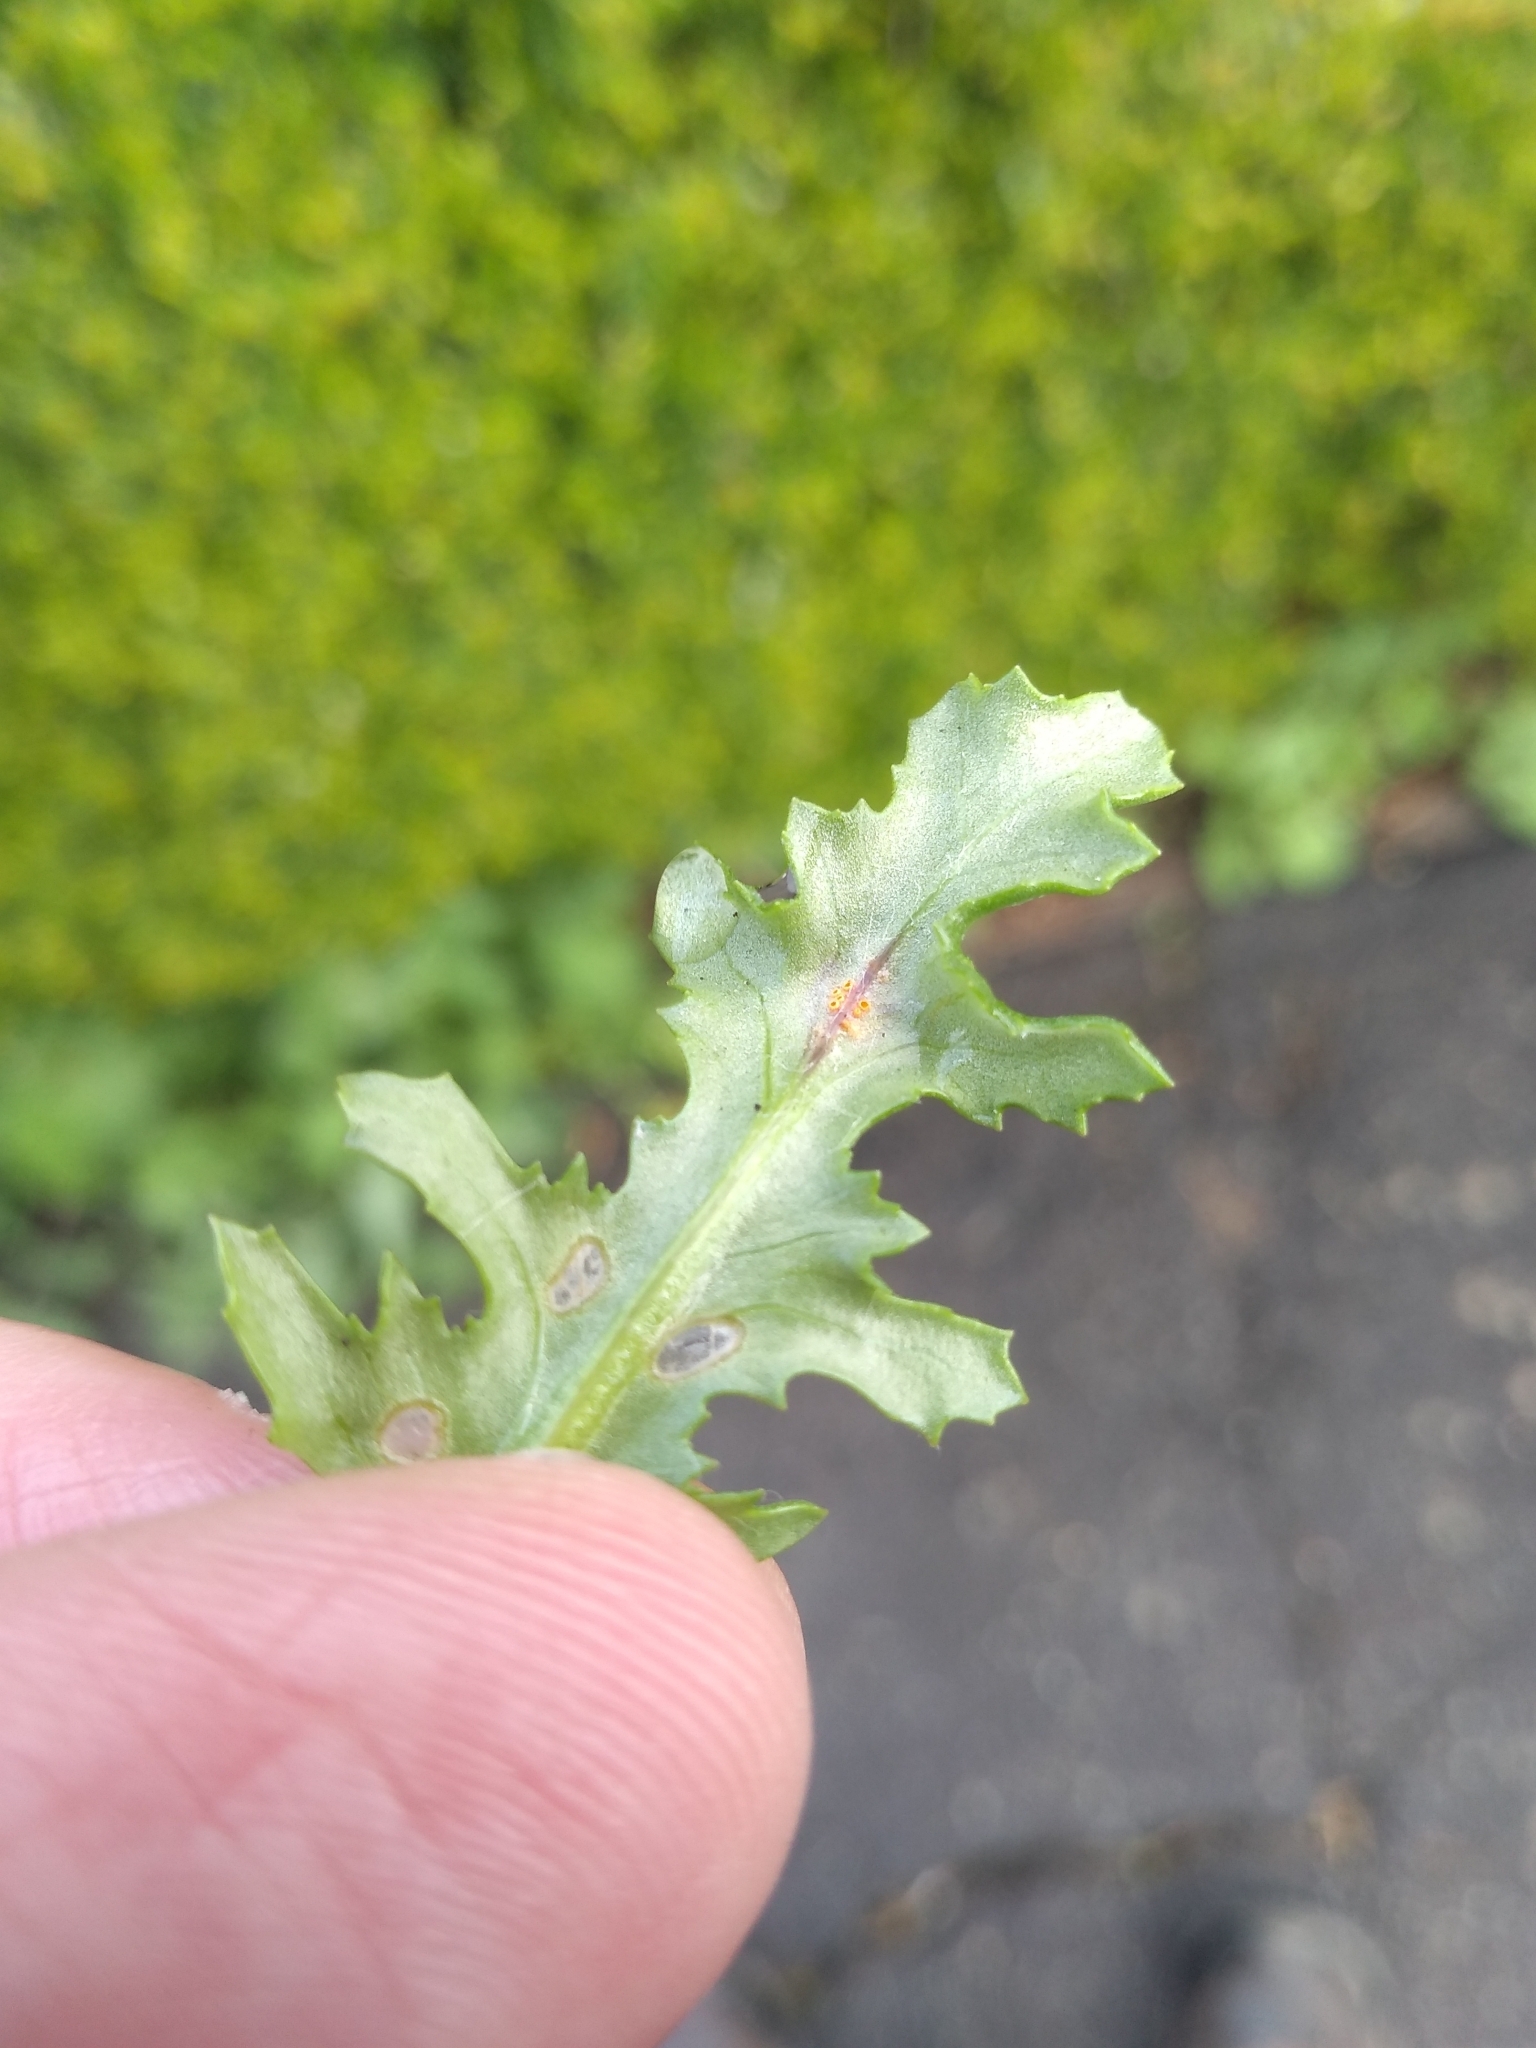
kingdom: Fungi
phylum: Basidiomycota
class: Pucciniomycetes
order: Pucciniales
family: Pucciniaceae
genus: Puccinia
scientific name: Puccinia lagenophorae
